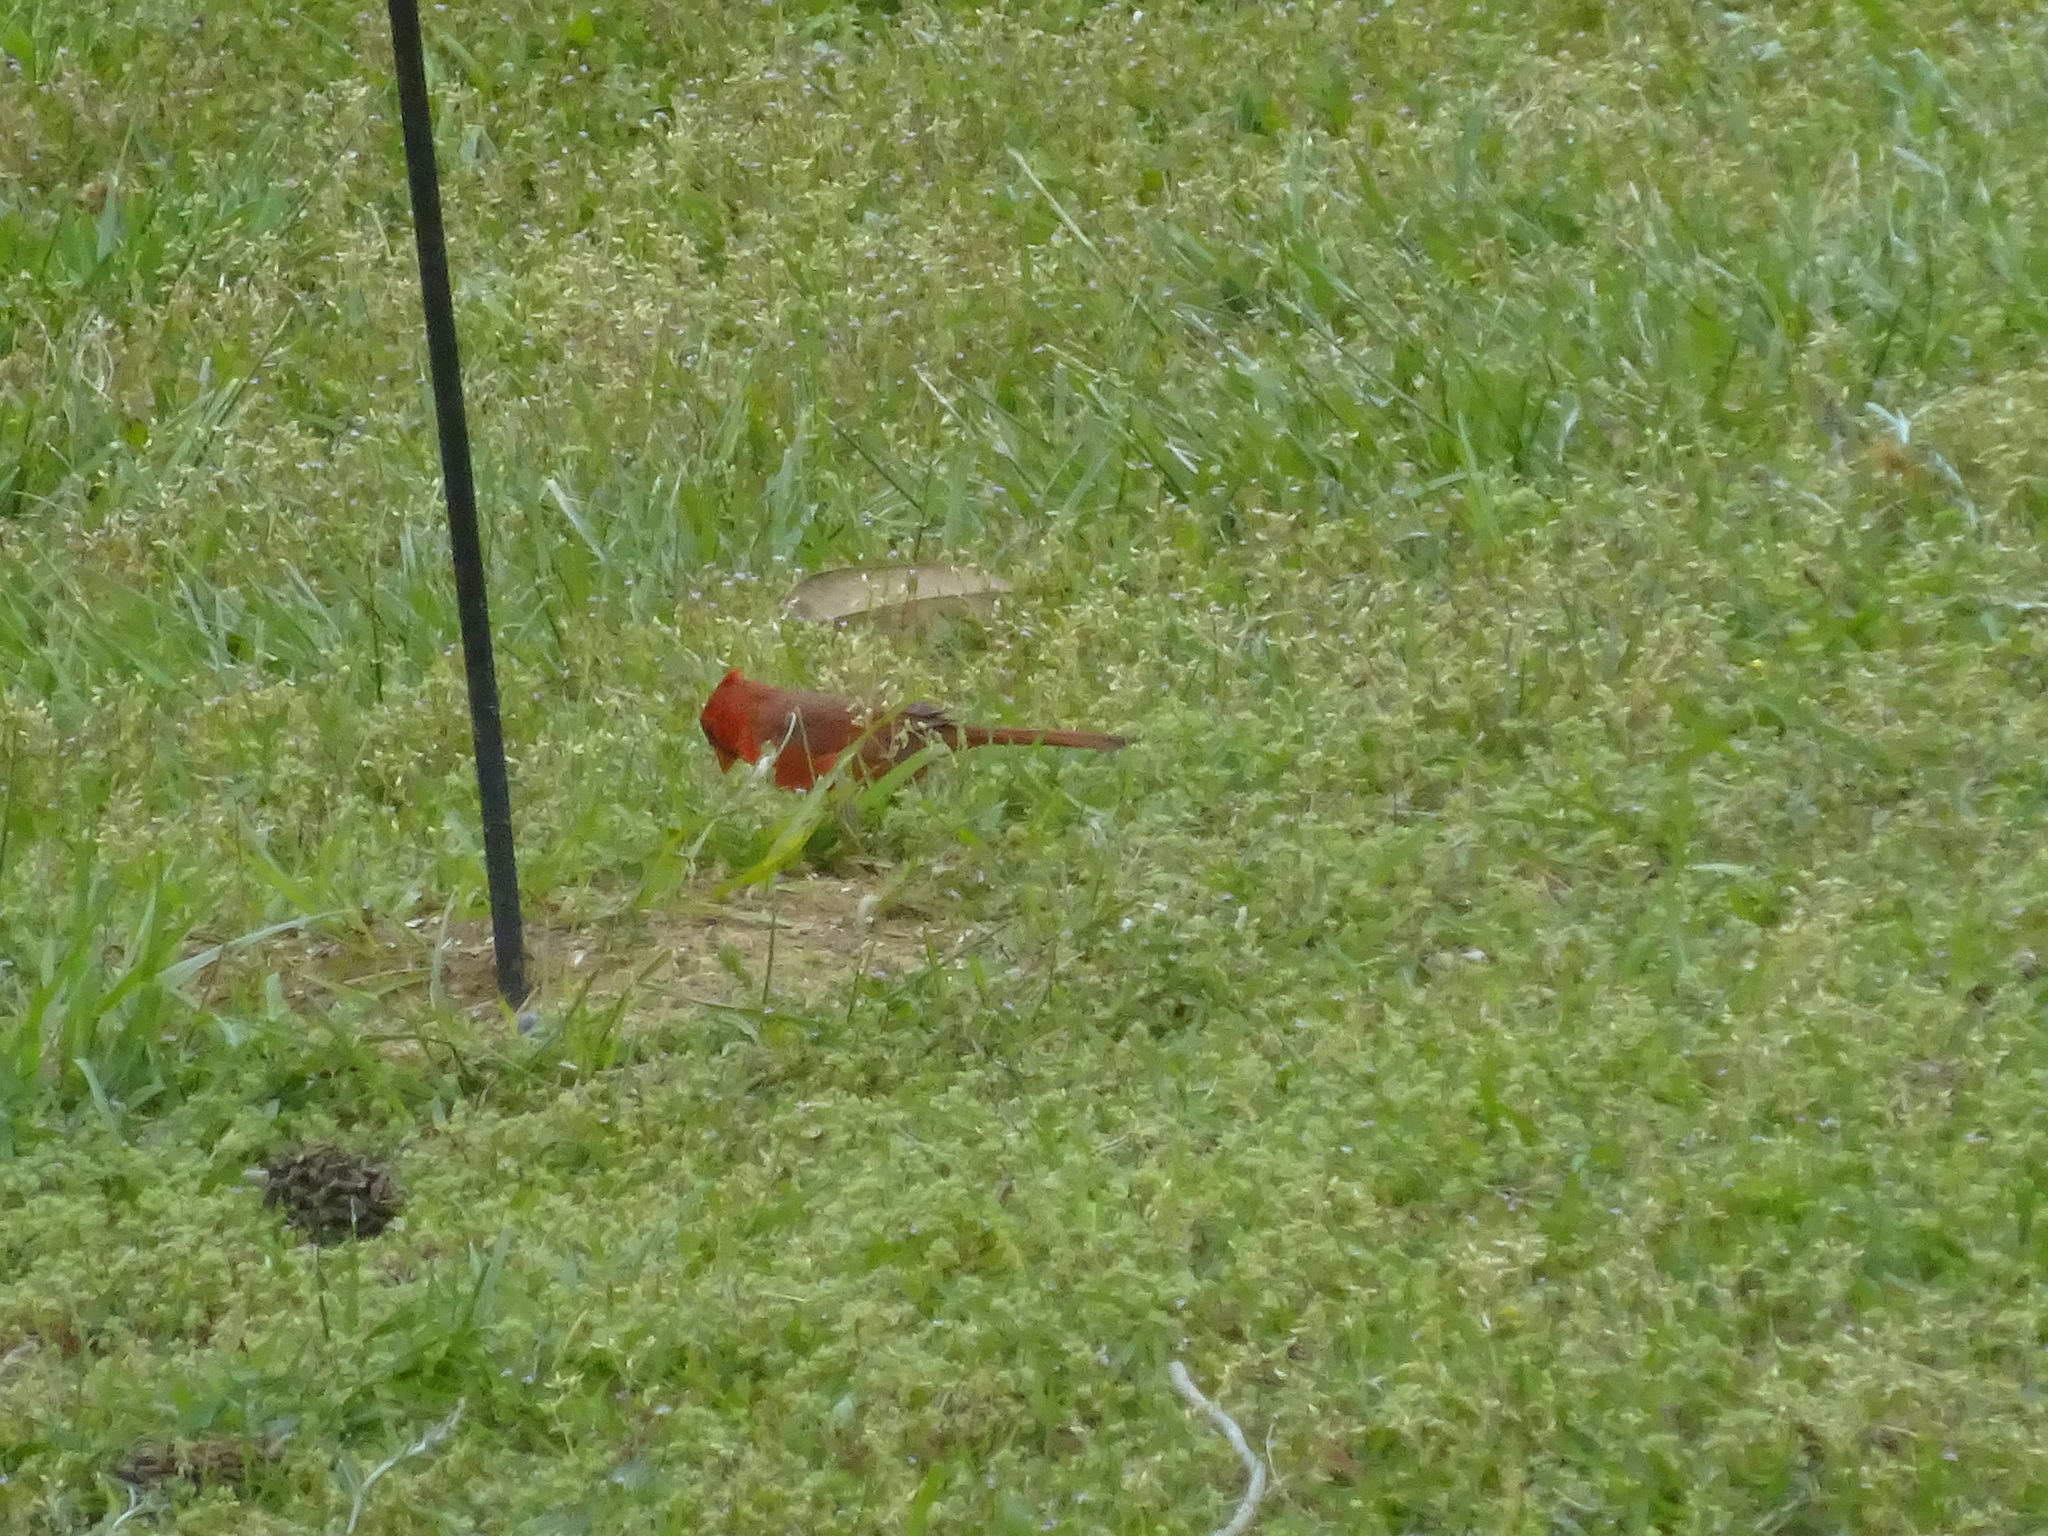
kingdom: Animalia
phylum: Chordata
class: Aves
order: Passeriformes
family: Cardinalidae
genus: Cardinalis
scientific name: Cardinalis cardinalis
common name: Northern cardinal
